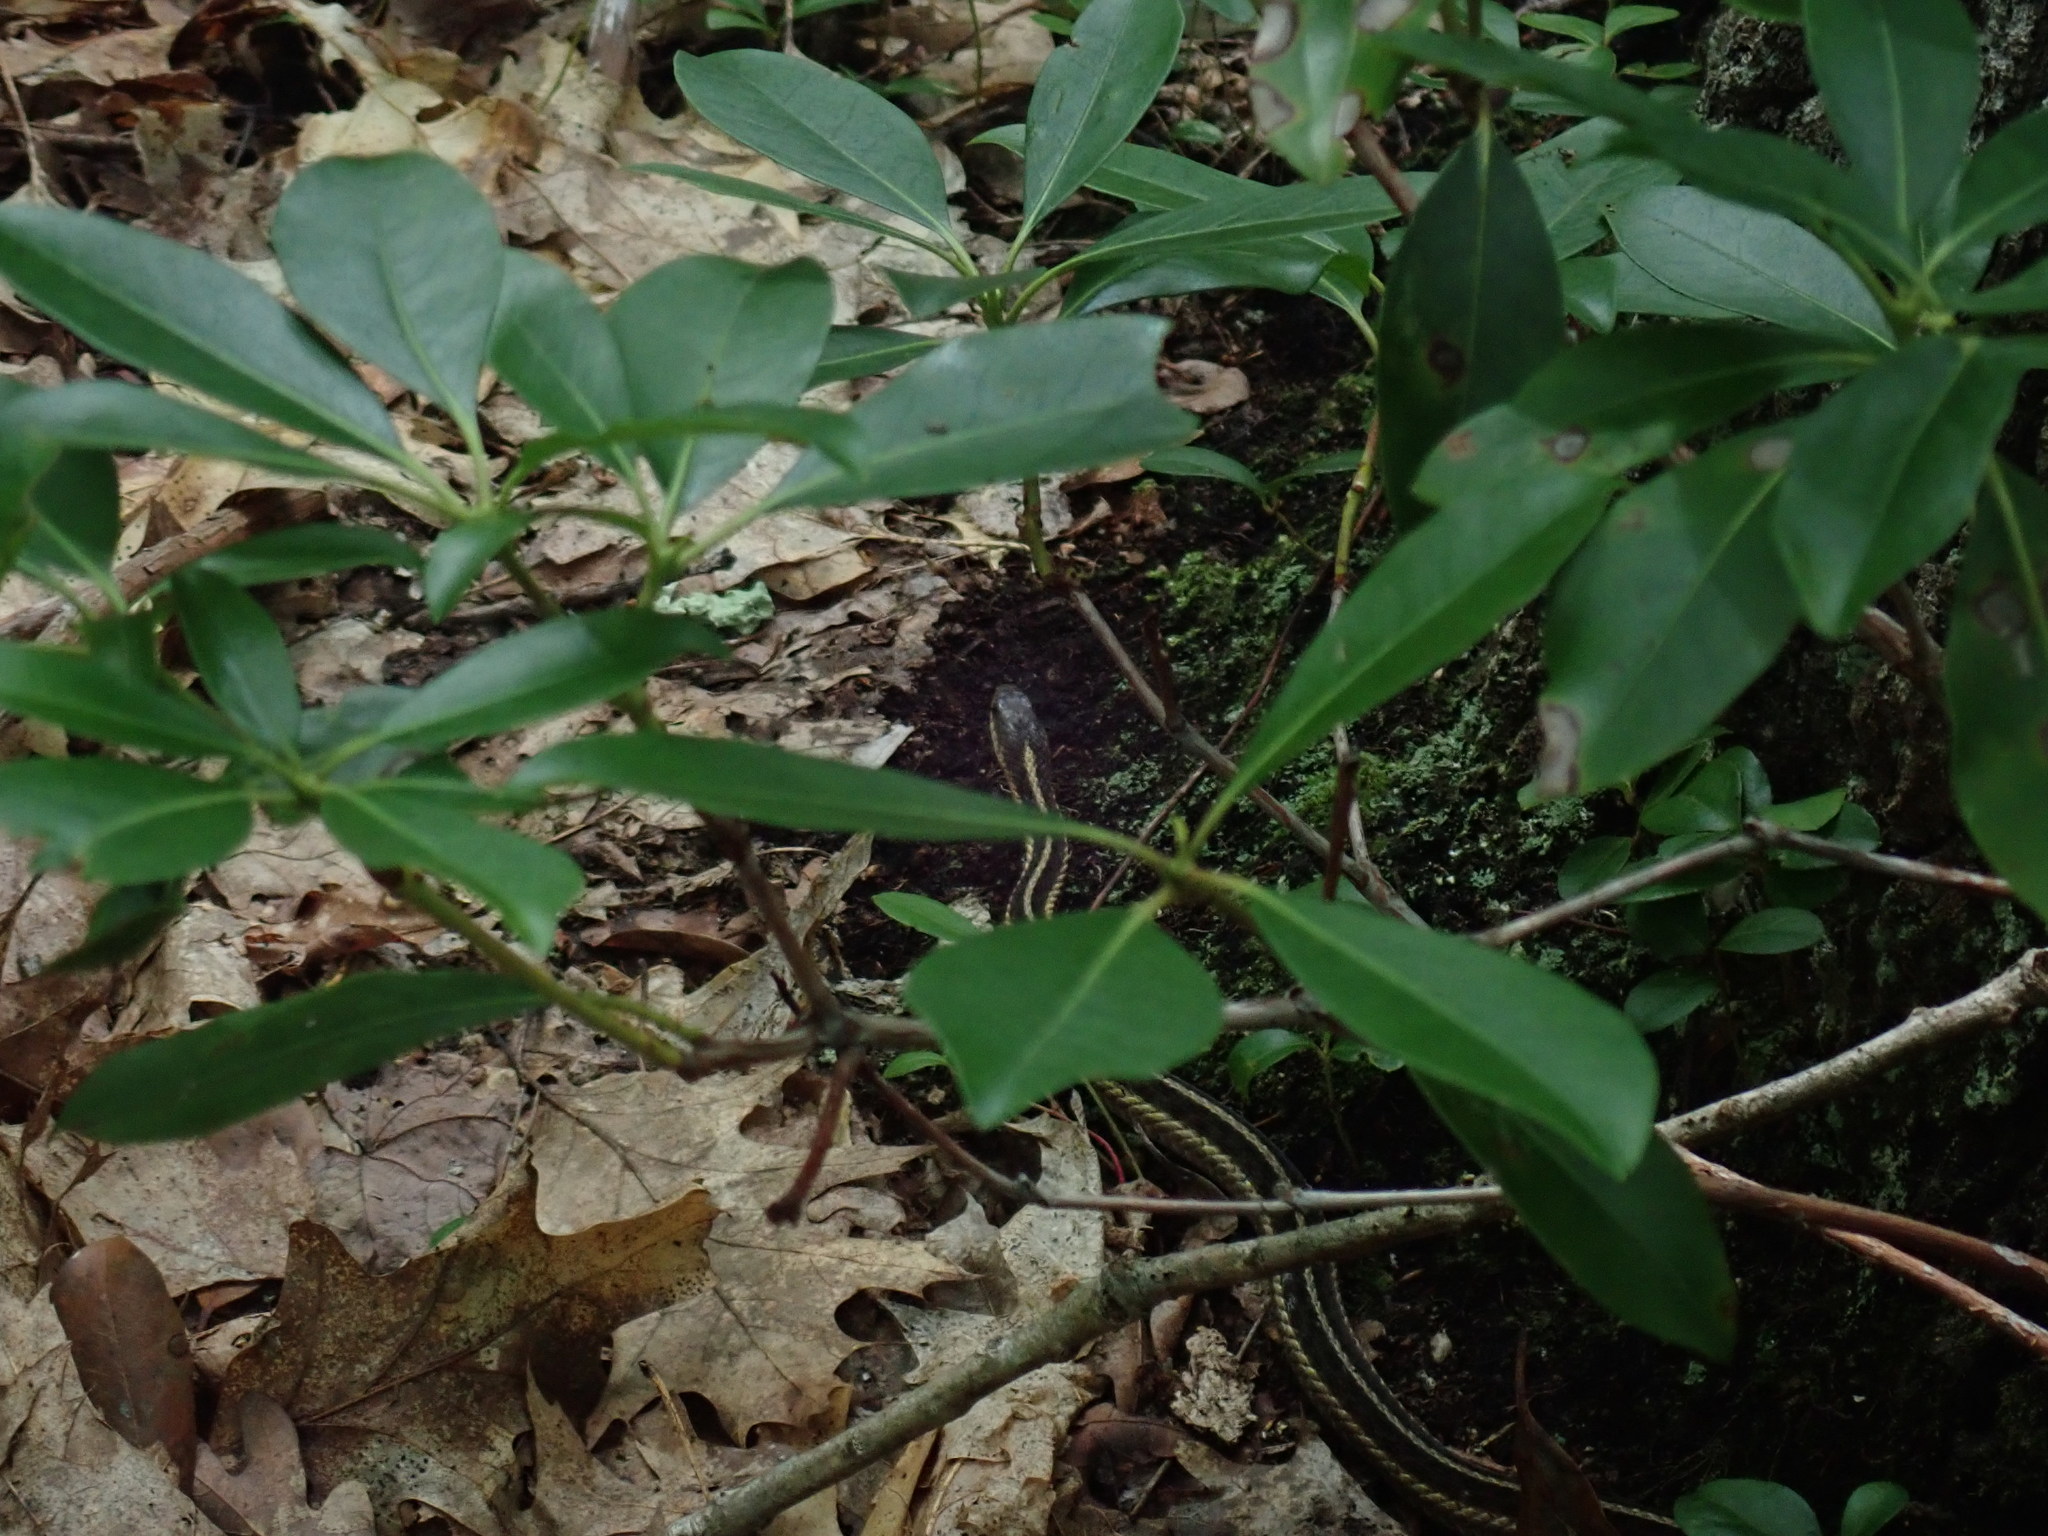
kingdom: Animalia
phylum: Chordata
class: Squamata
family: Colubridae
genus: Thamnophis
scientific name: Thamnophis sirtalis
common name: Common garter snake
